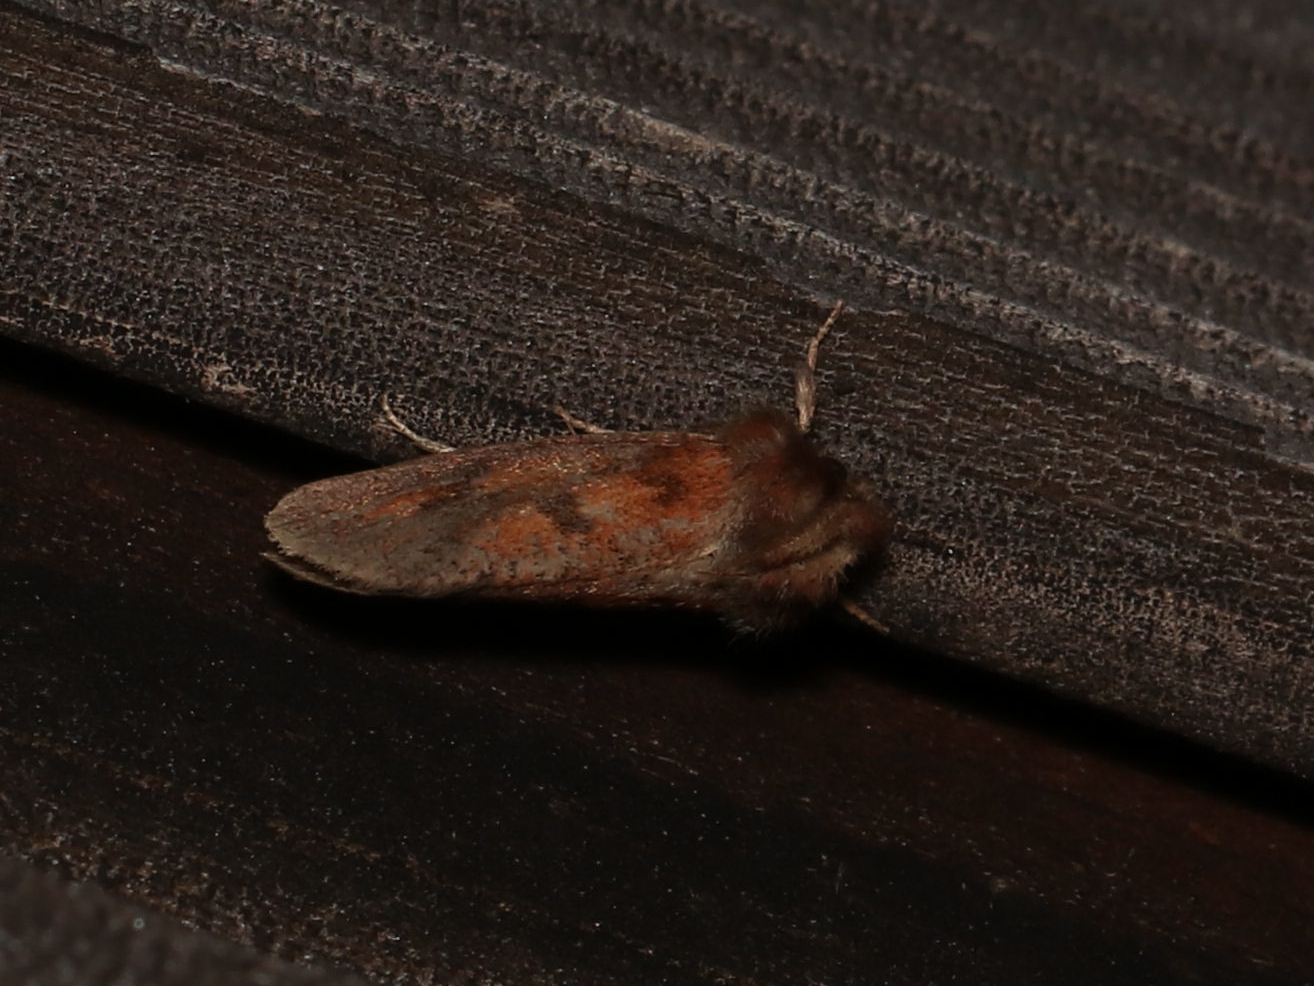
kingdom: Animalia
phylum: Arthropoda
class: Insecta
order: Lepidoptera
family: Tineidae
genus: Acrolophus
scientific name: Acrolophus plumifrontella
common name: Eastern grass tubeworm moth
